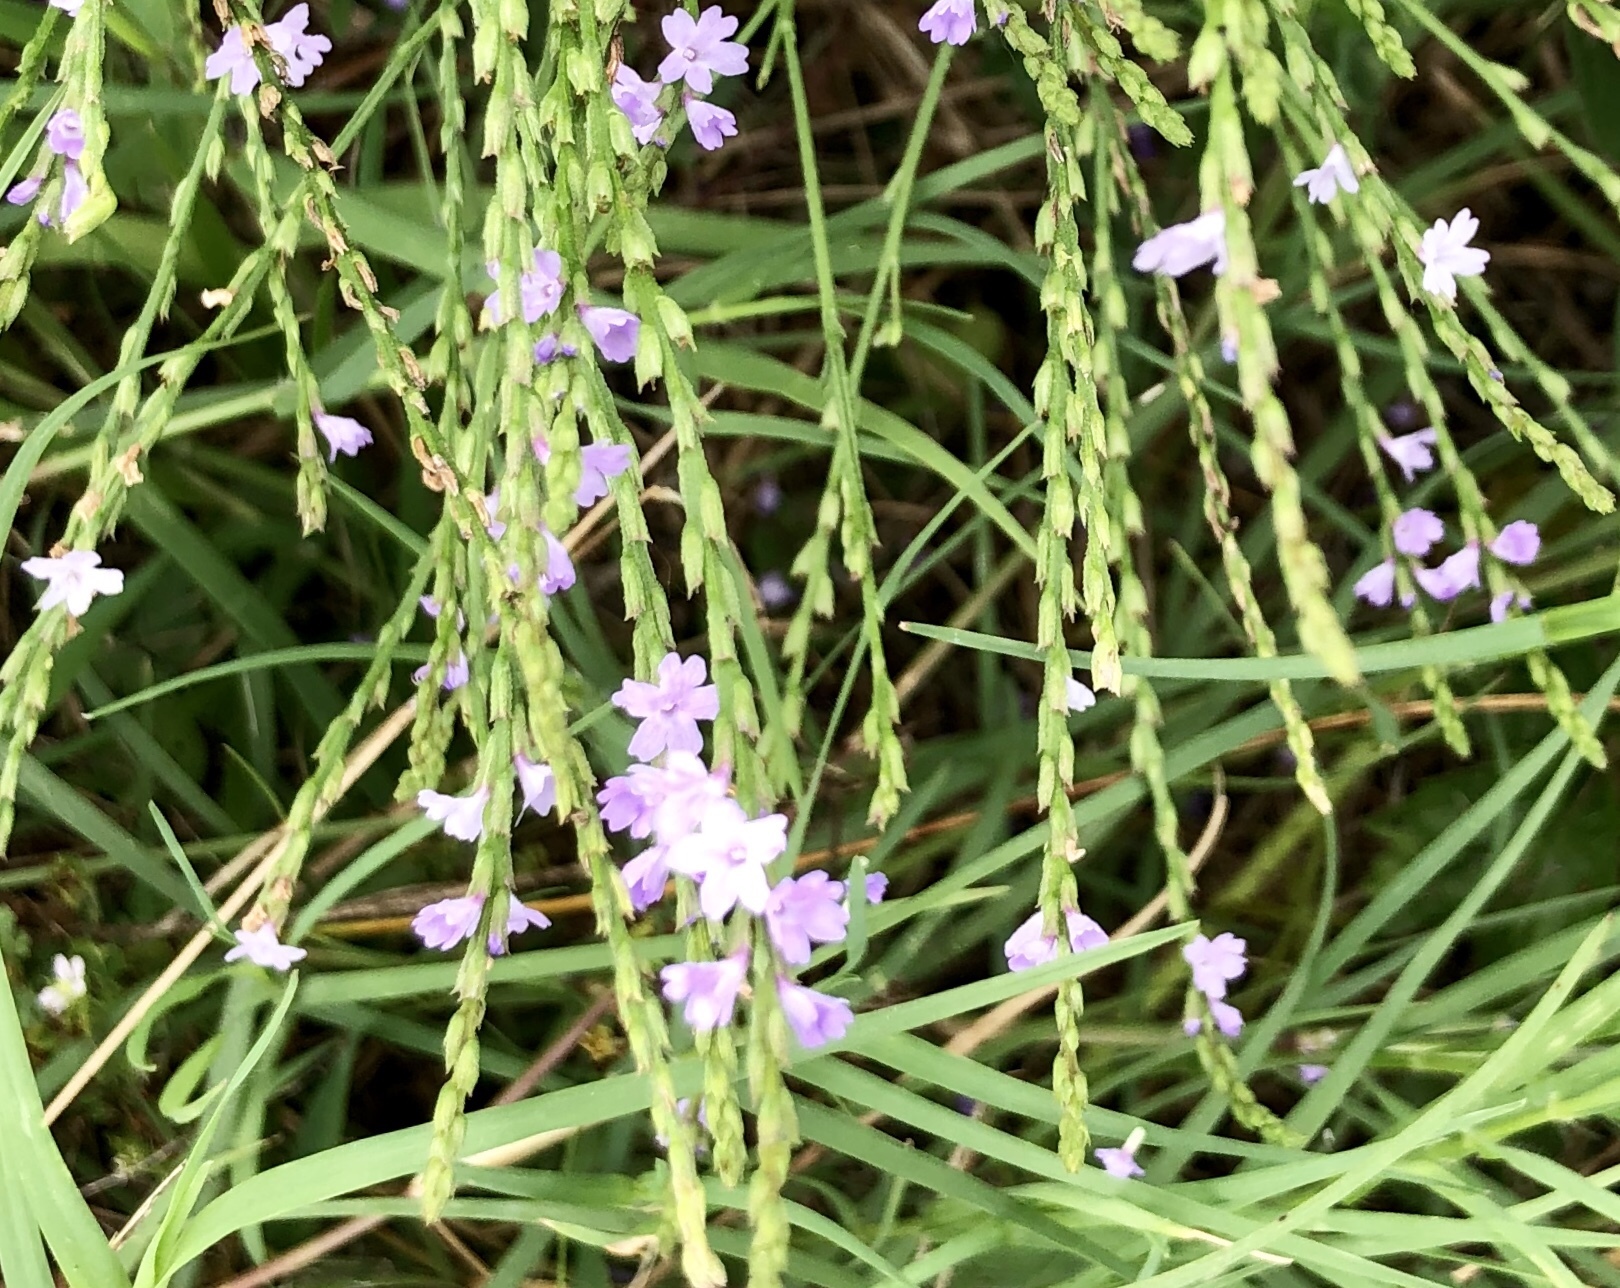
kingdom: Plantae
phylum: Tracheophyta
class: Magnoliopsida
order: Lamiales
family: Verbenaceae
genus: Verbena
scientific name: Verbena halei
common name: Texas vervain
